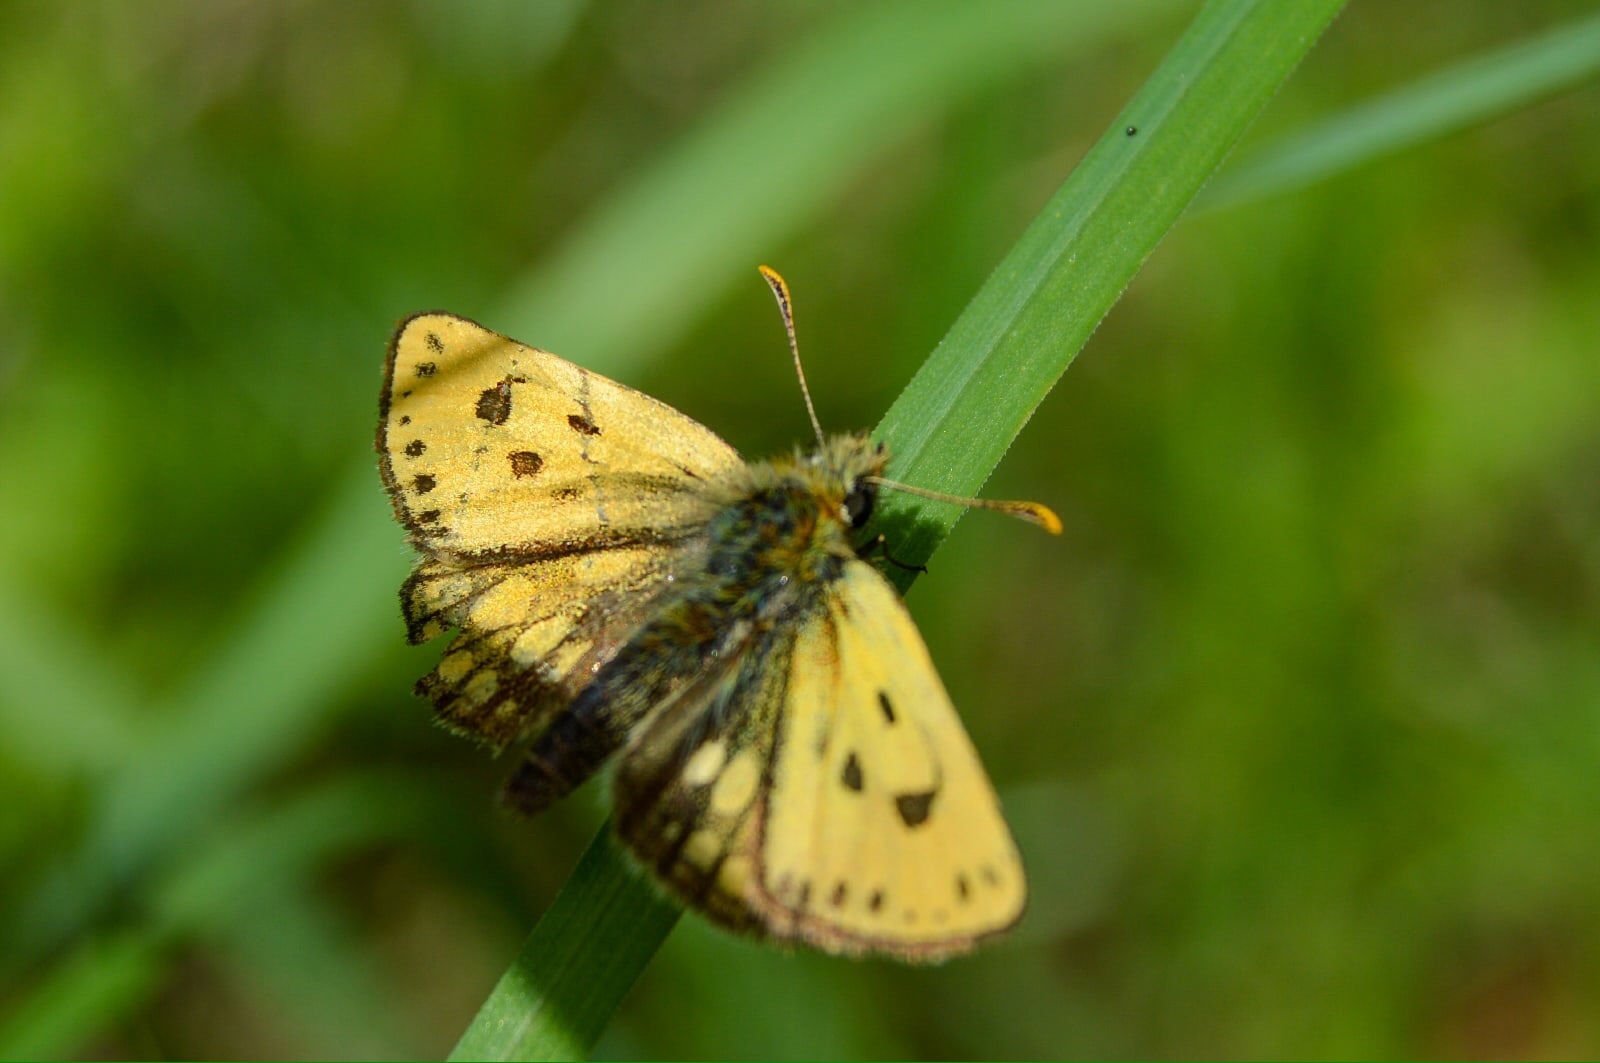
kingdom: Animalia
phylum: Arthropoda
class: Insecta
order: Lepidoptera
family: Hesperiidae
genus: Carterocephalus
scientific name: Carterocephalus silvicola
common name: Northern chequered skipper
